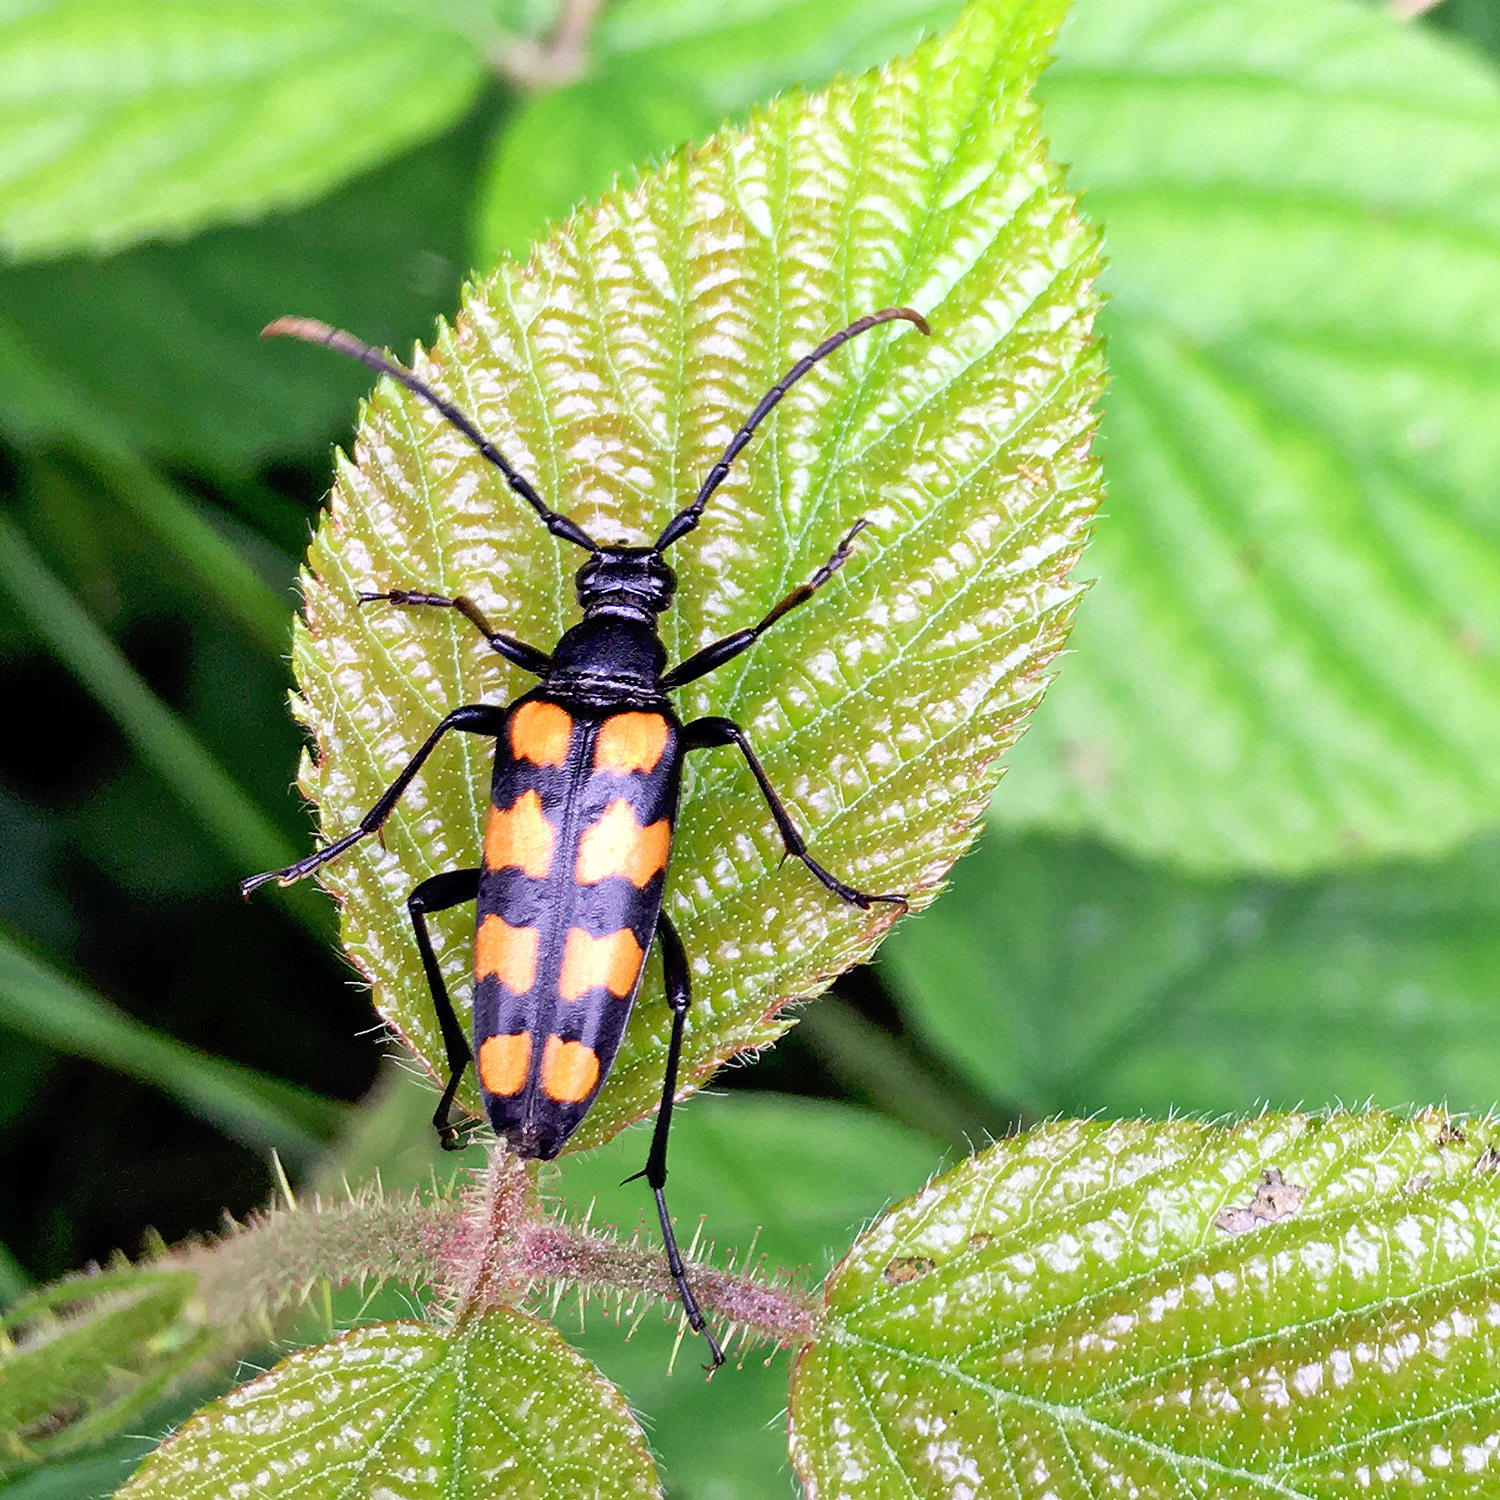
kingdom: Animalia
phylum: Arthropoda
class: Insecta
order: Coleoptera
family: Cerambycidae
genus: Leptura
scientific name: Leptura quadrifasciata
